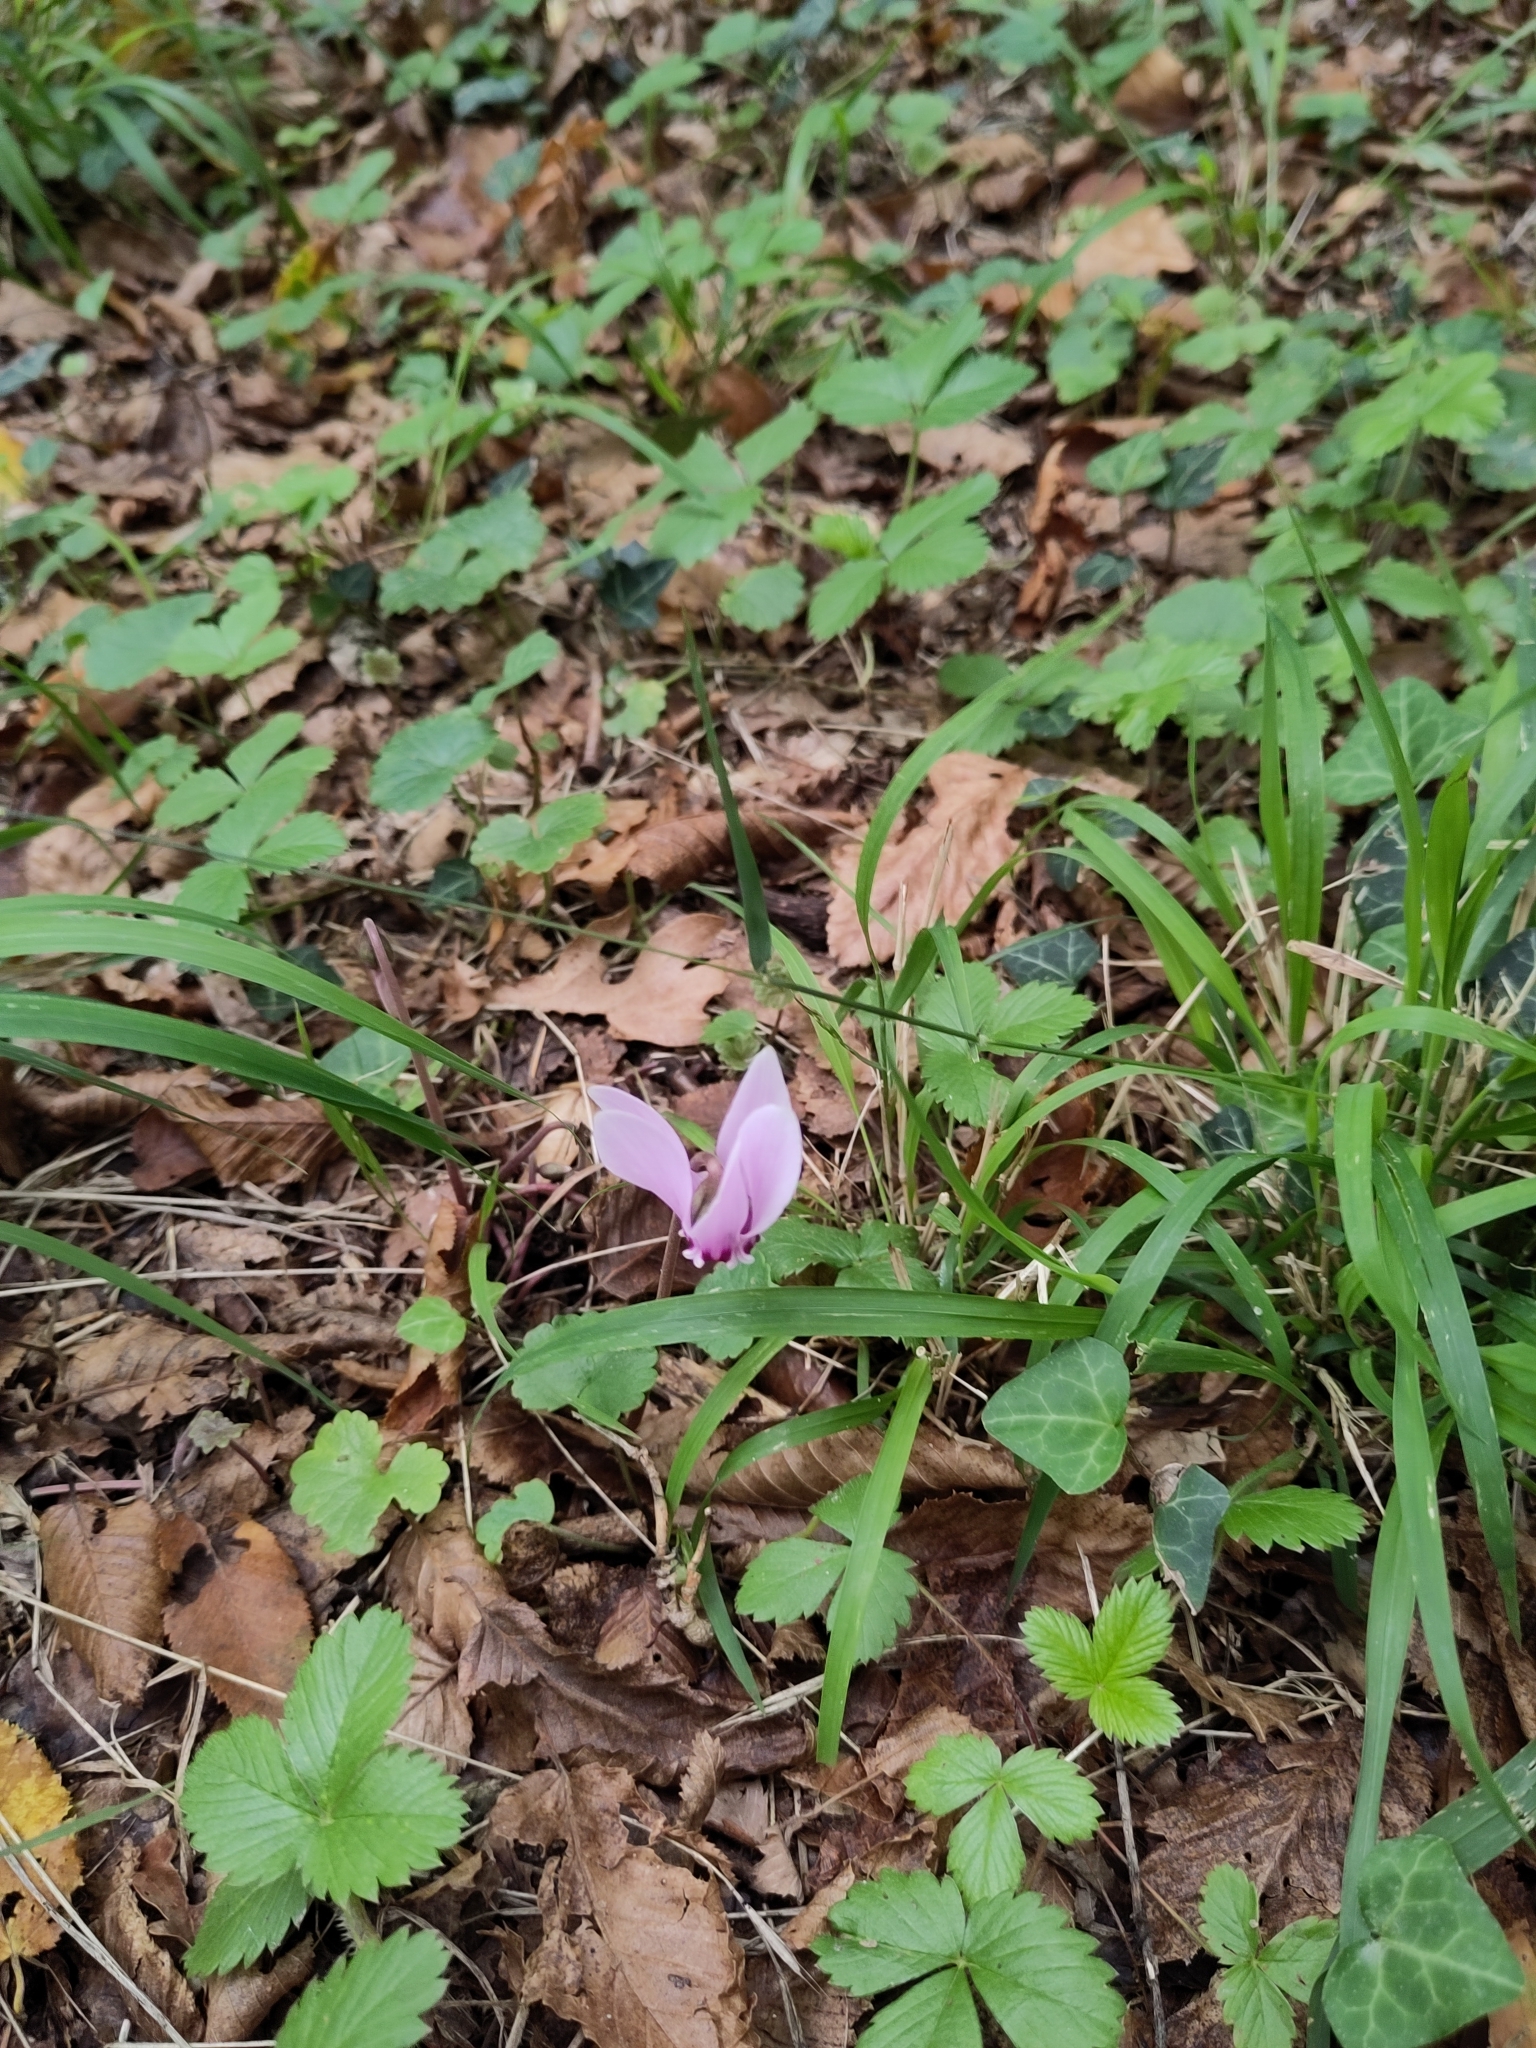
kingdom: Plantae
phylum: Tracheophyta
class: Magnoliopsida
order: Ericales
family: Primulaceae
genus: Cyclamen
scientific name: Cyclamen hederifolium
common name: Sowbread
